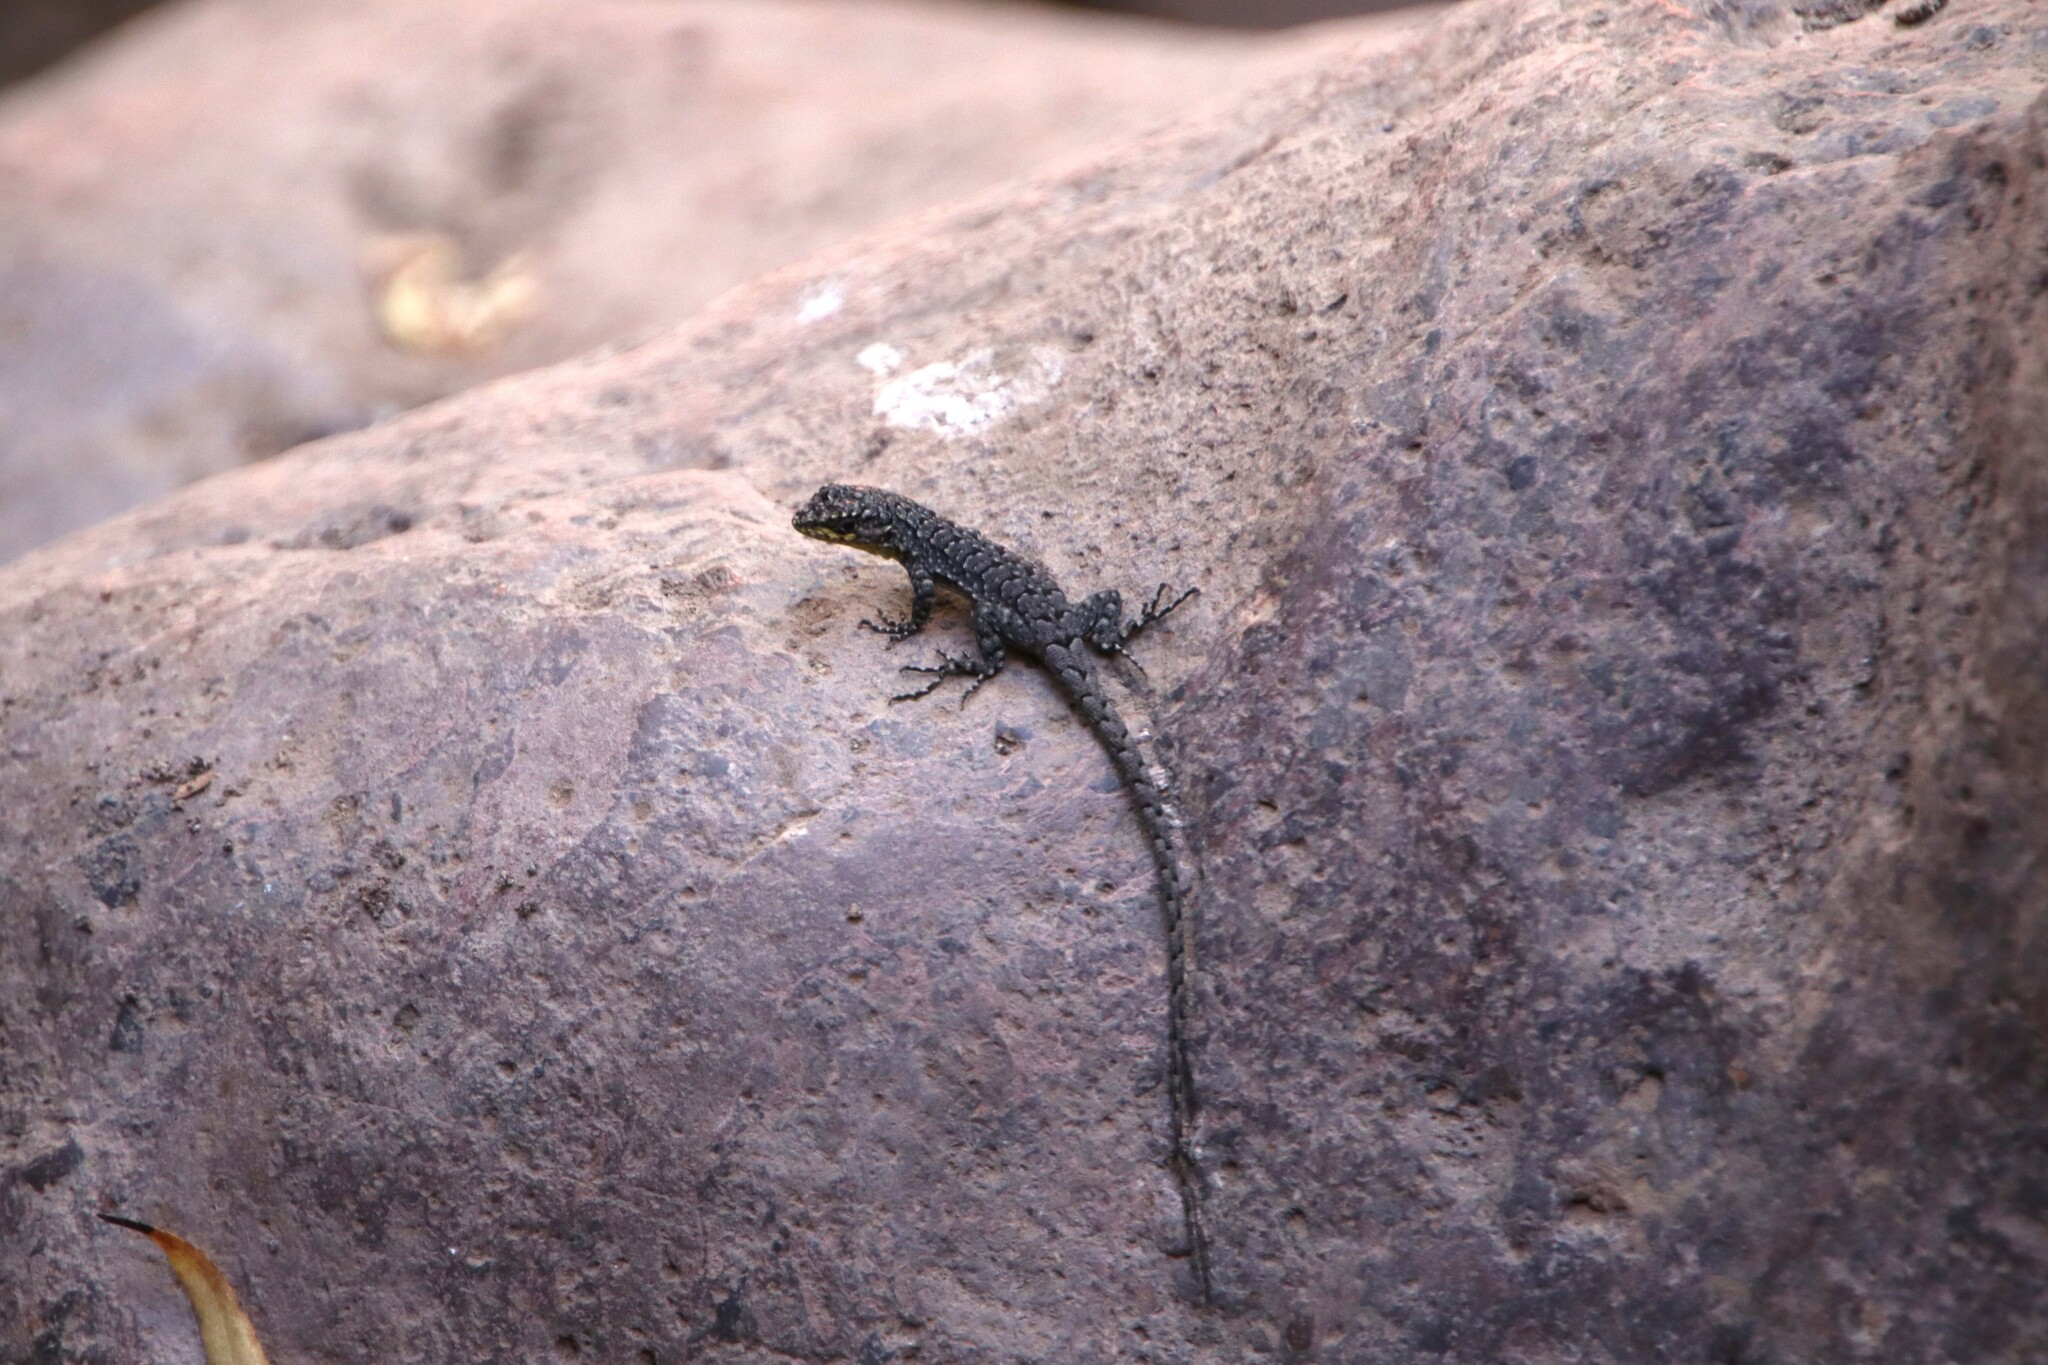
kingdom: Animalia
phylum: Chordata
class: Squamata
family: Liolaemidae
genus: Liolaemus
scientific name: Liolaemus tenuis
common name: Thin tree iguana
